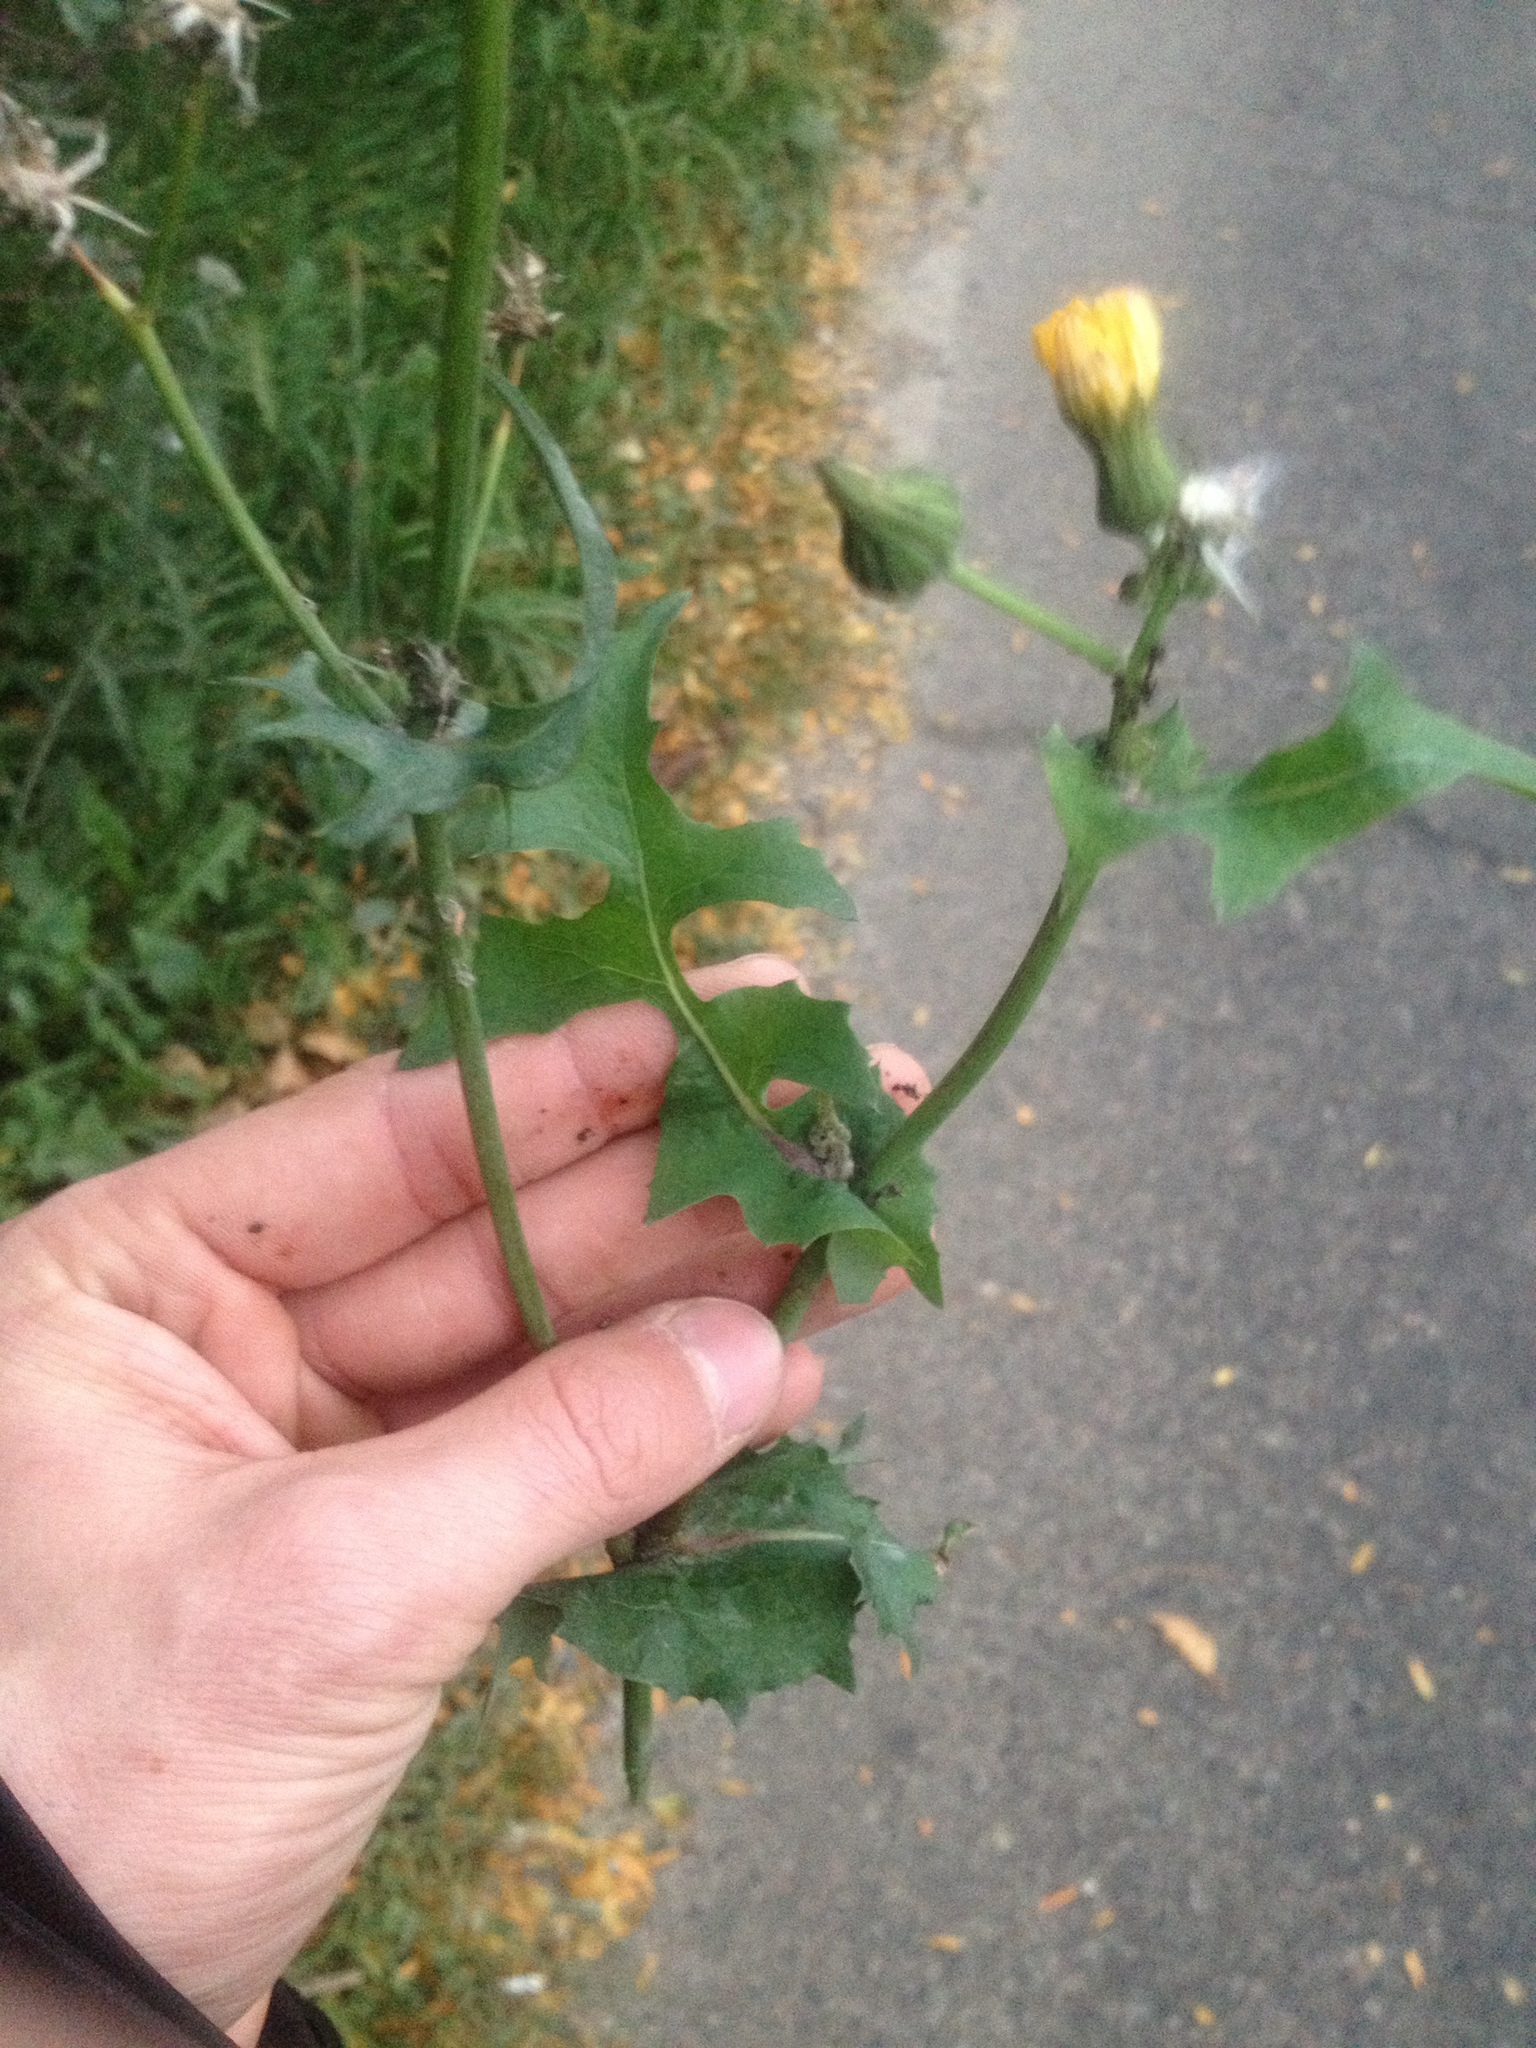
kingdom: Plantae
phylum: Tracheophyta
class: Magnoliopsida
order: Asterales
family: Asteraceae
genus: Sonchus
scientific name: Sonchus oleraceus
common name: Common sowthistle
